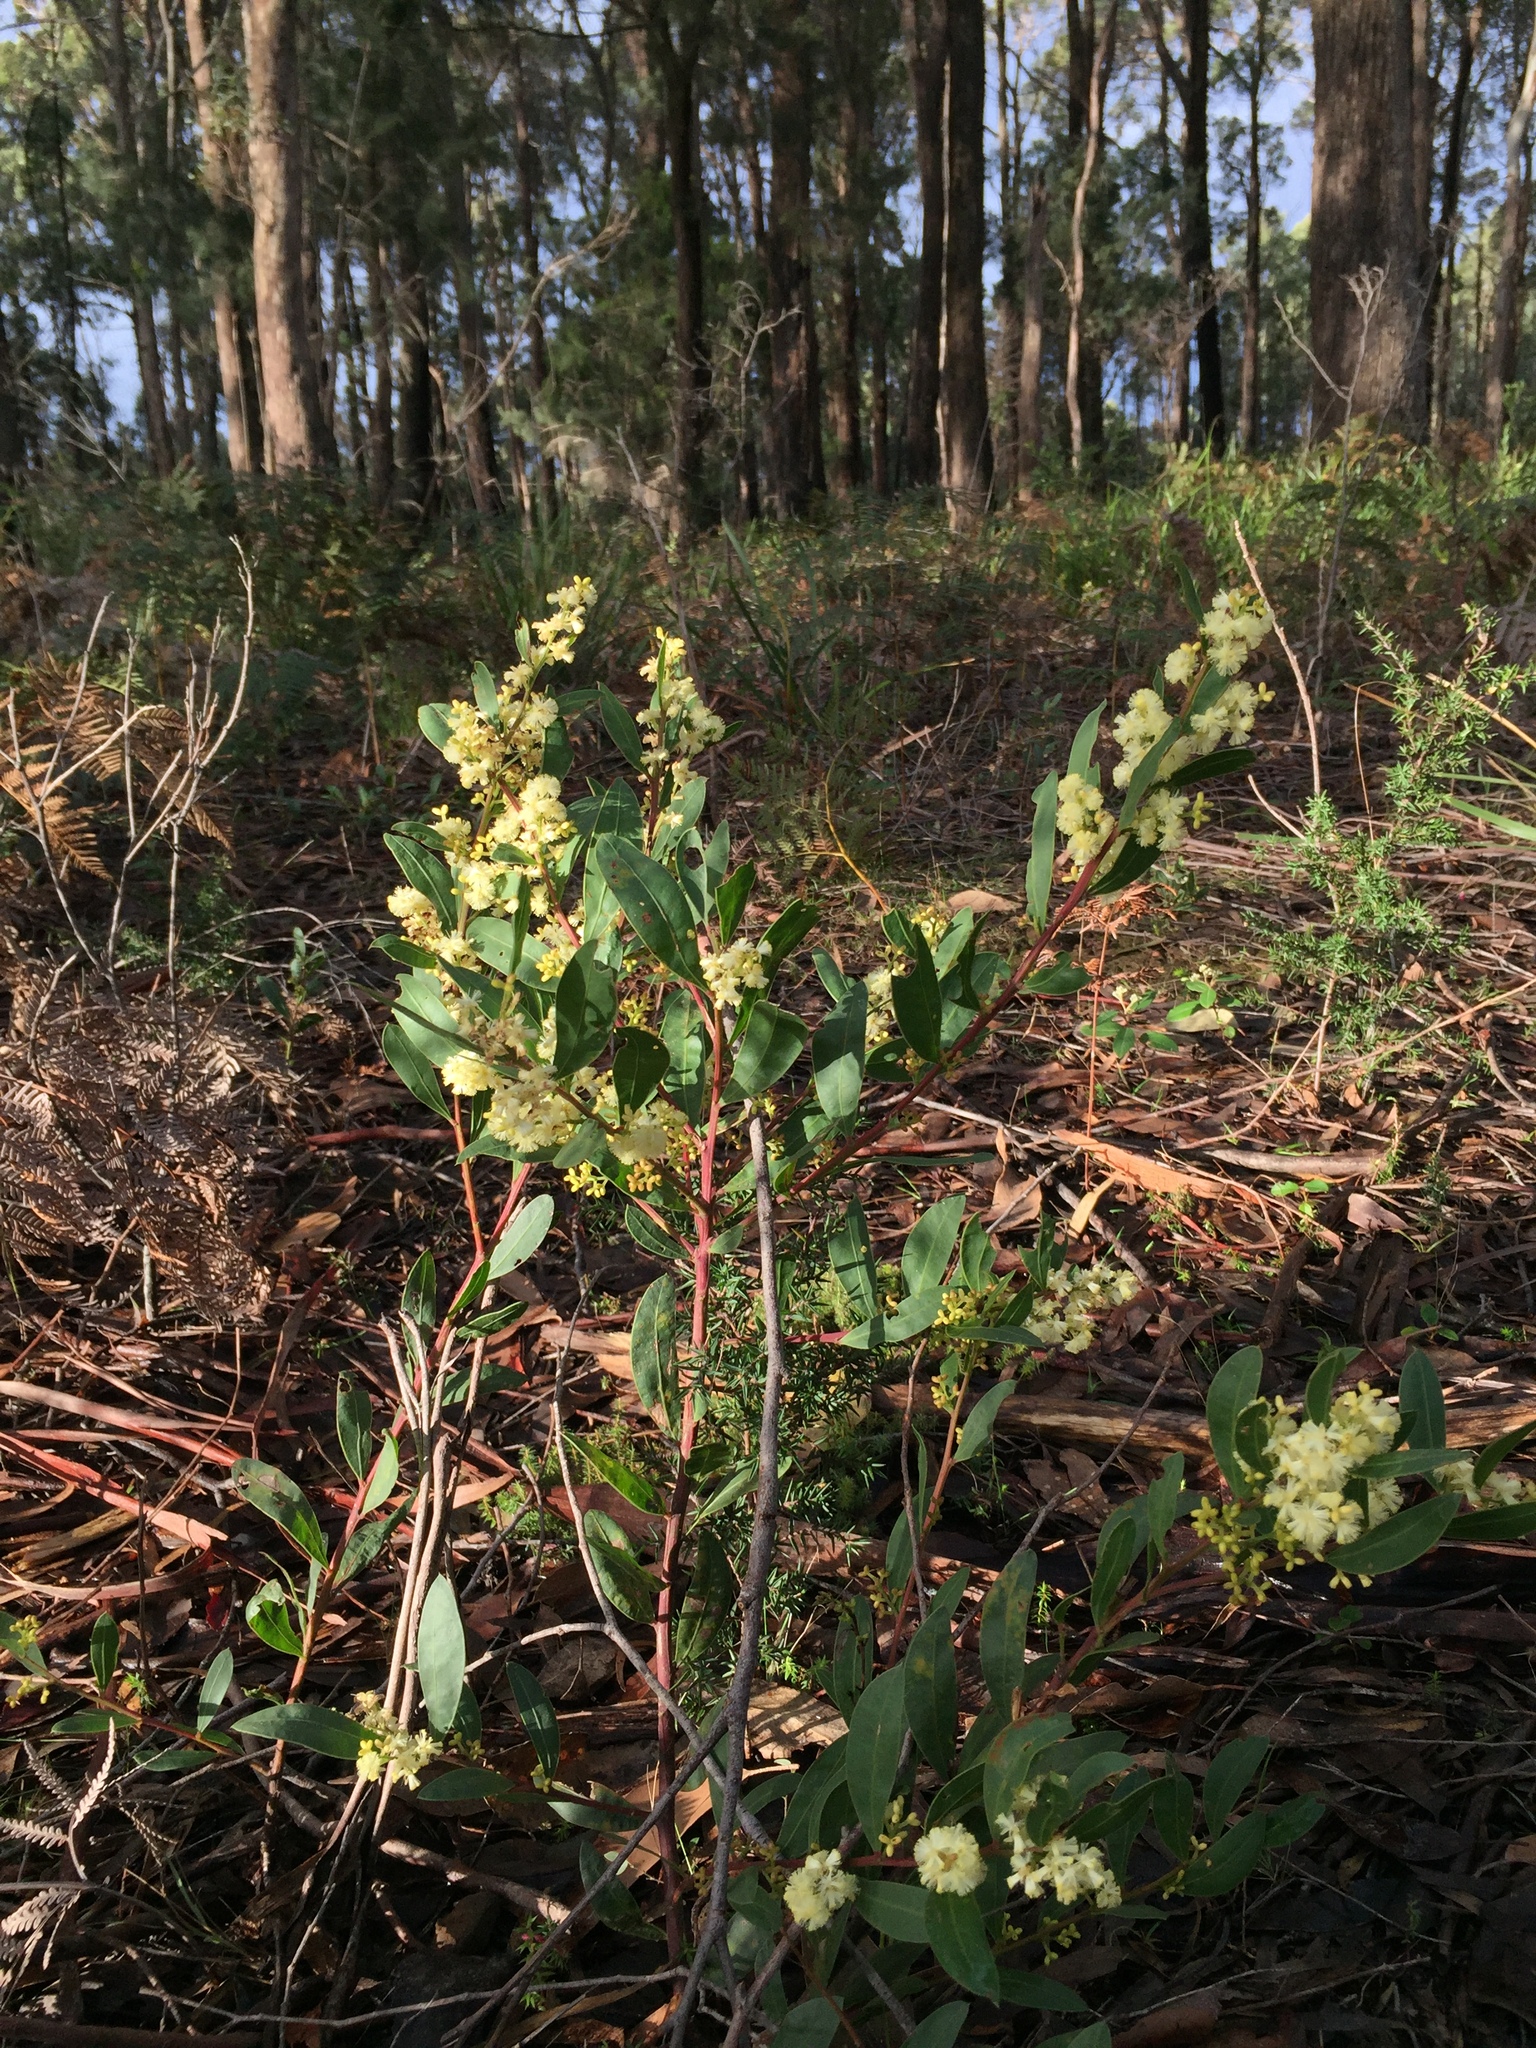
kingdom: Plantae
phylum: Tracheophyta
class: Magnoliopsida
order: Fabales
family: Fabaceae
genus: Acacia
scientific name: Acacia myrtifolia
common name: Myrtle wattle
